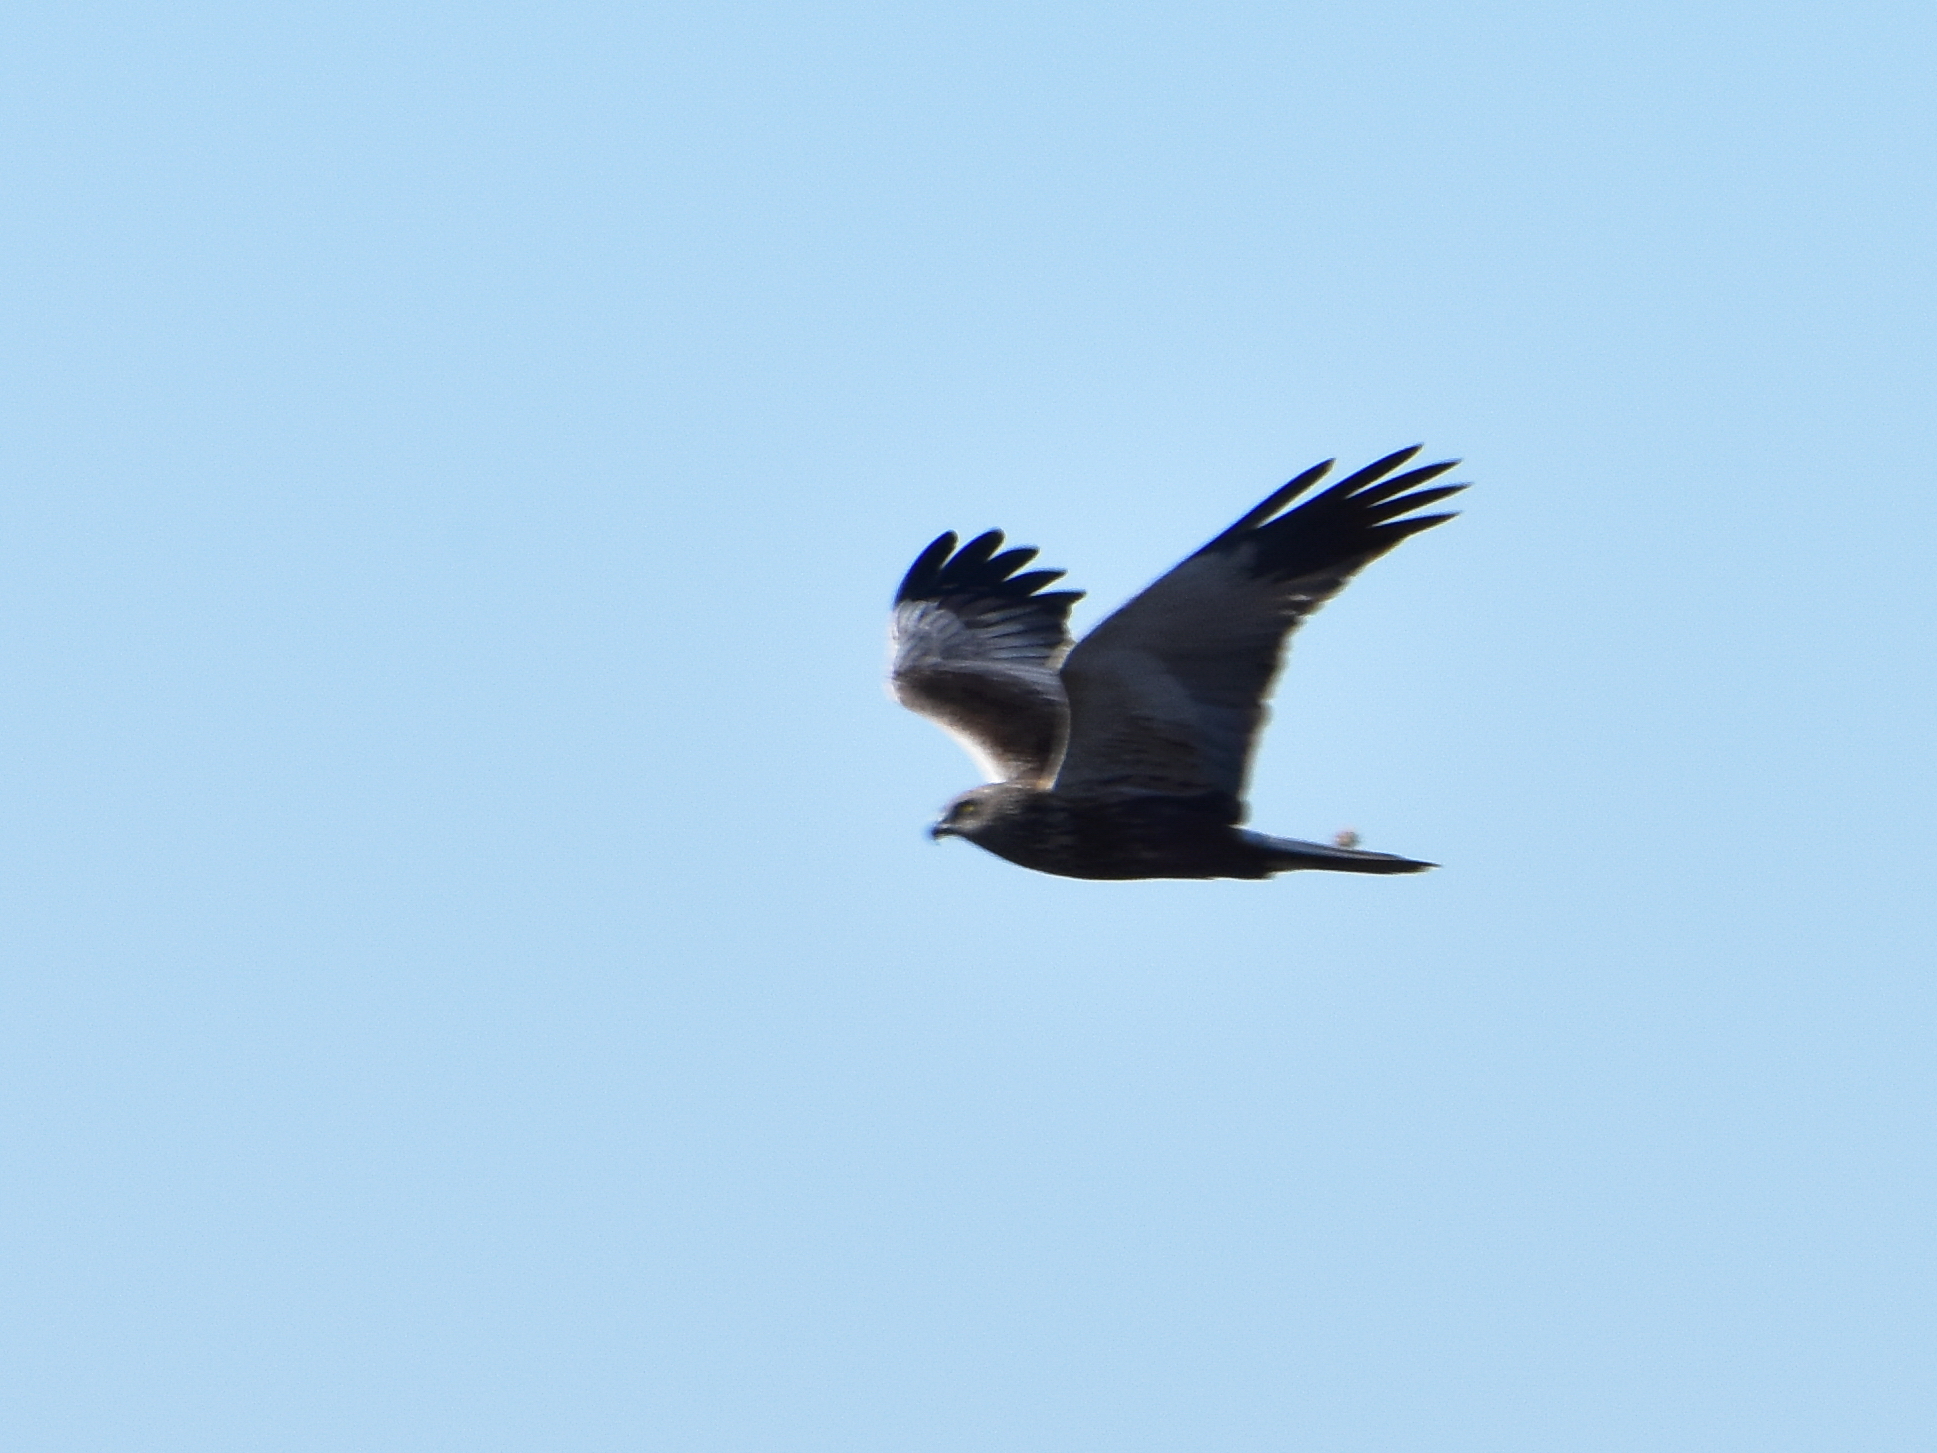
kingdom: Animalia
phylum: Chordata
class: Aves
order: Accipitriformes
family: Accipitridae
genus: Circus
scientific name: Circus aeruginosus
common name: Western marsh harrier
